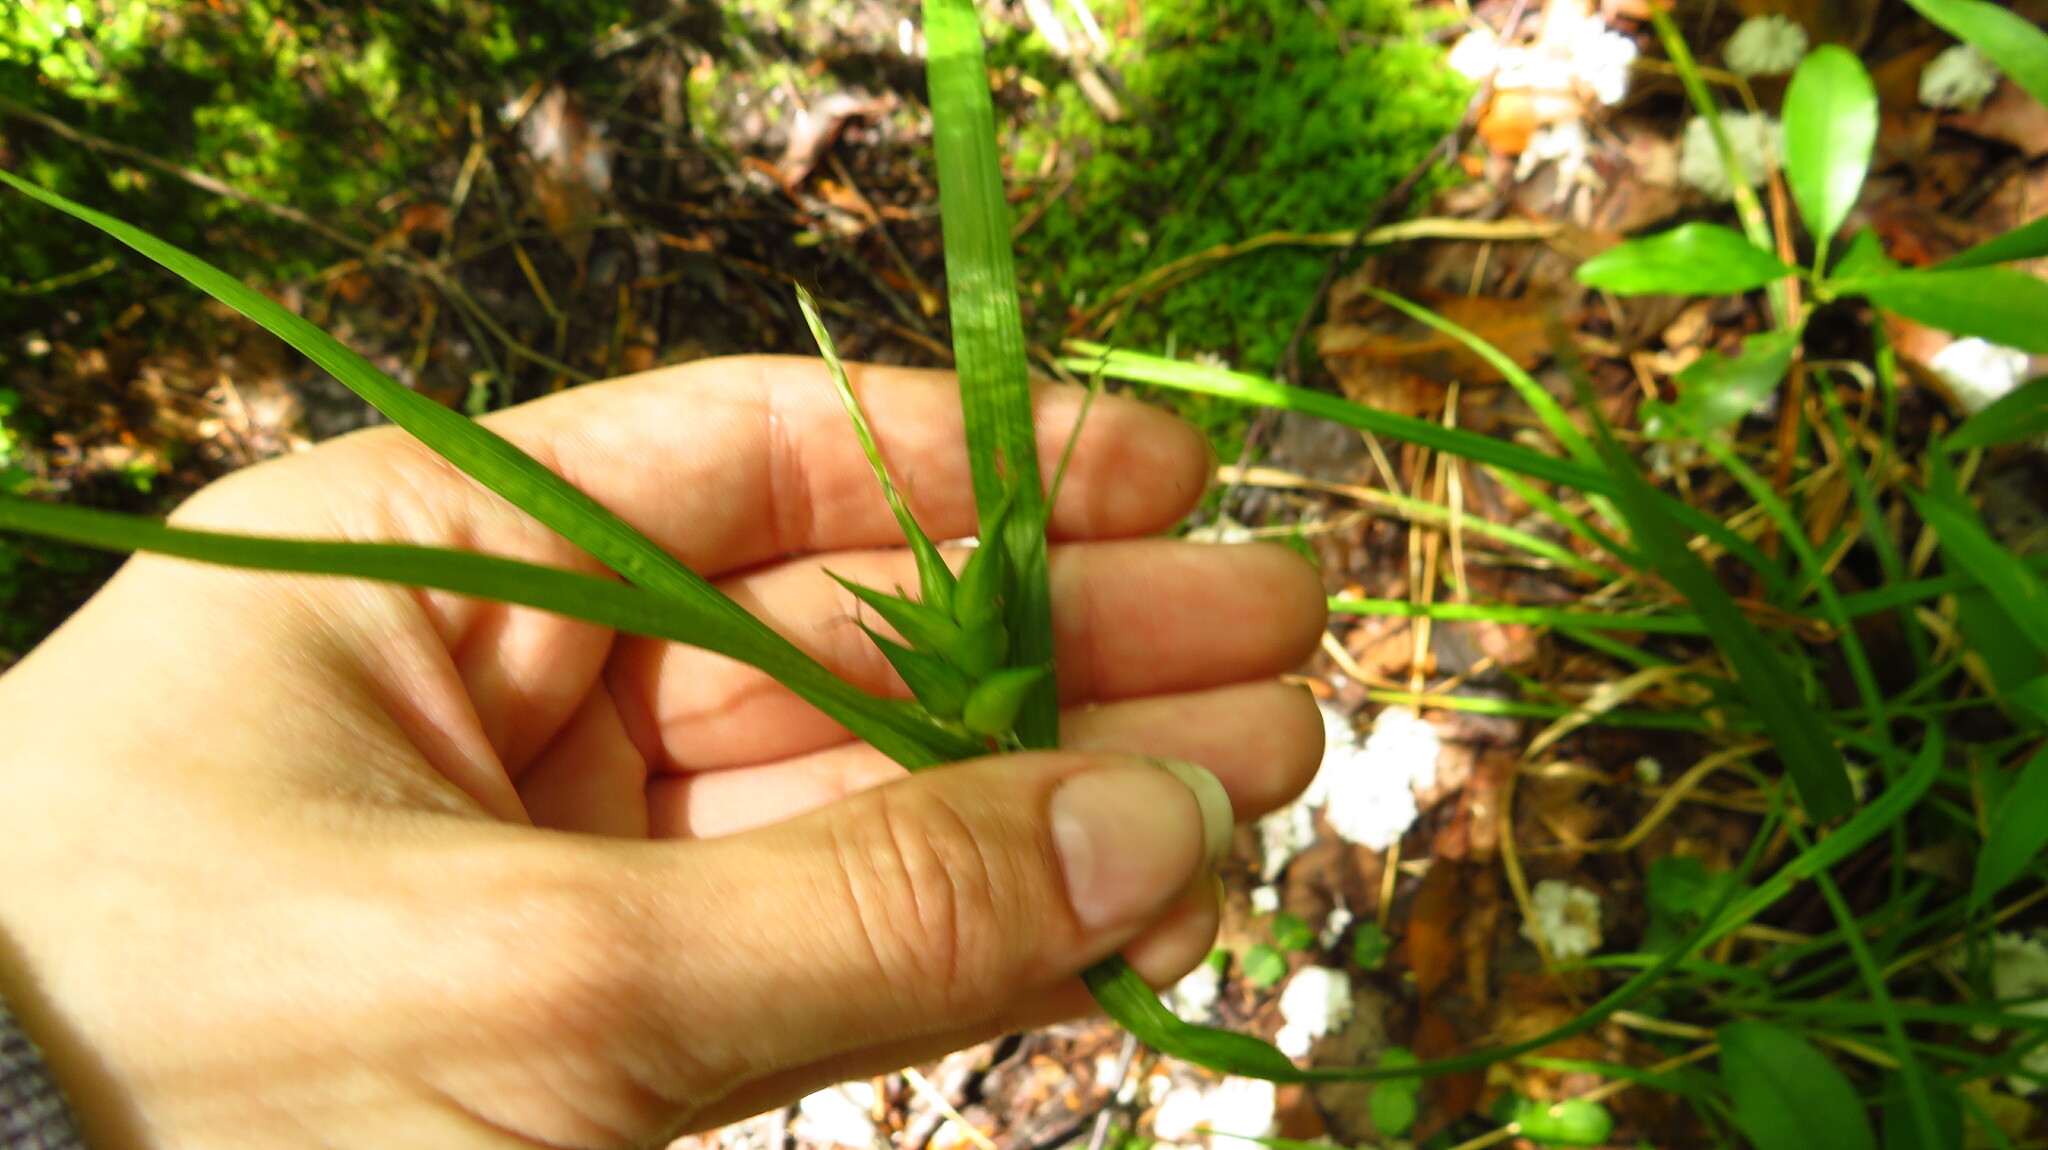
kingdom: Plantae
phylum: Tracheophyta
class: Liliopsida
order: Poales
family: Cyperaceae
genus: Carex
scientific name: Carex intumescens
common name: Greater bladder sedge
